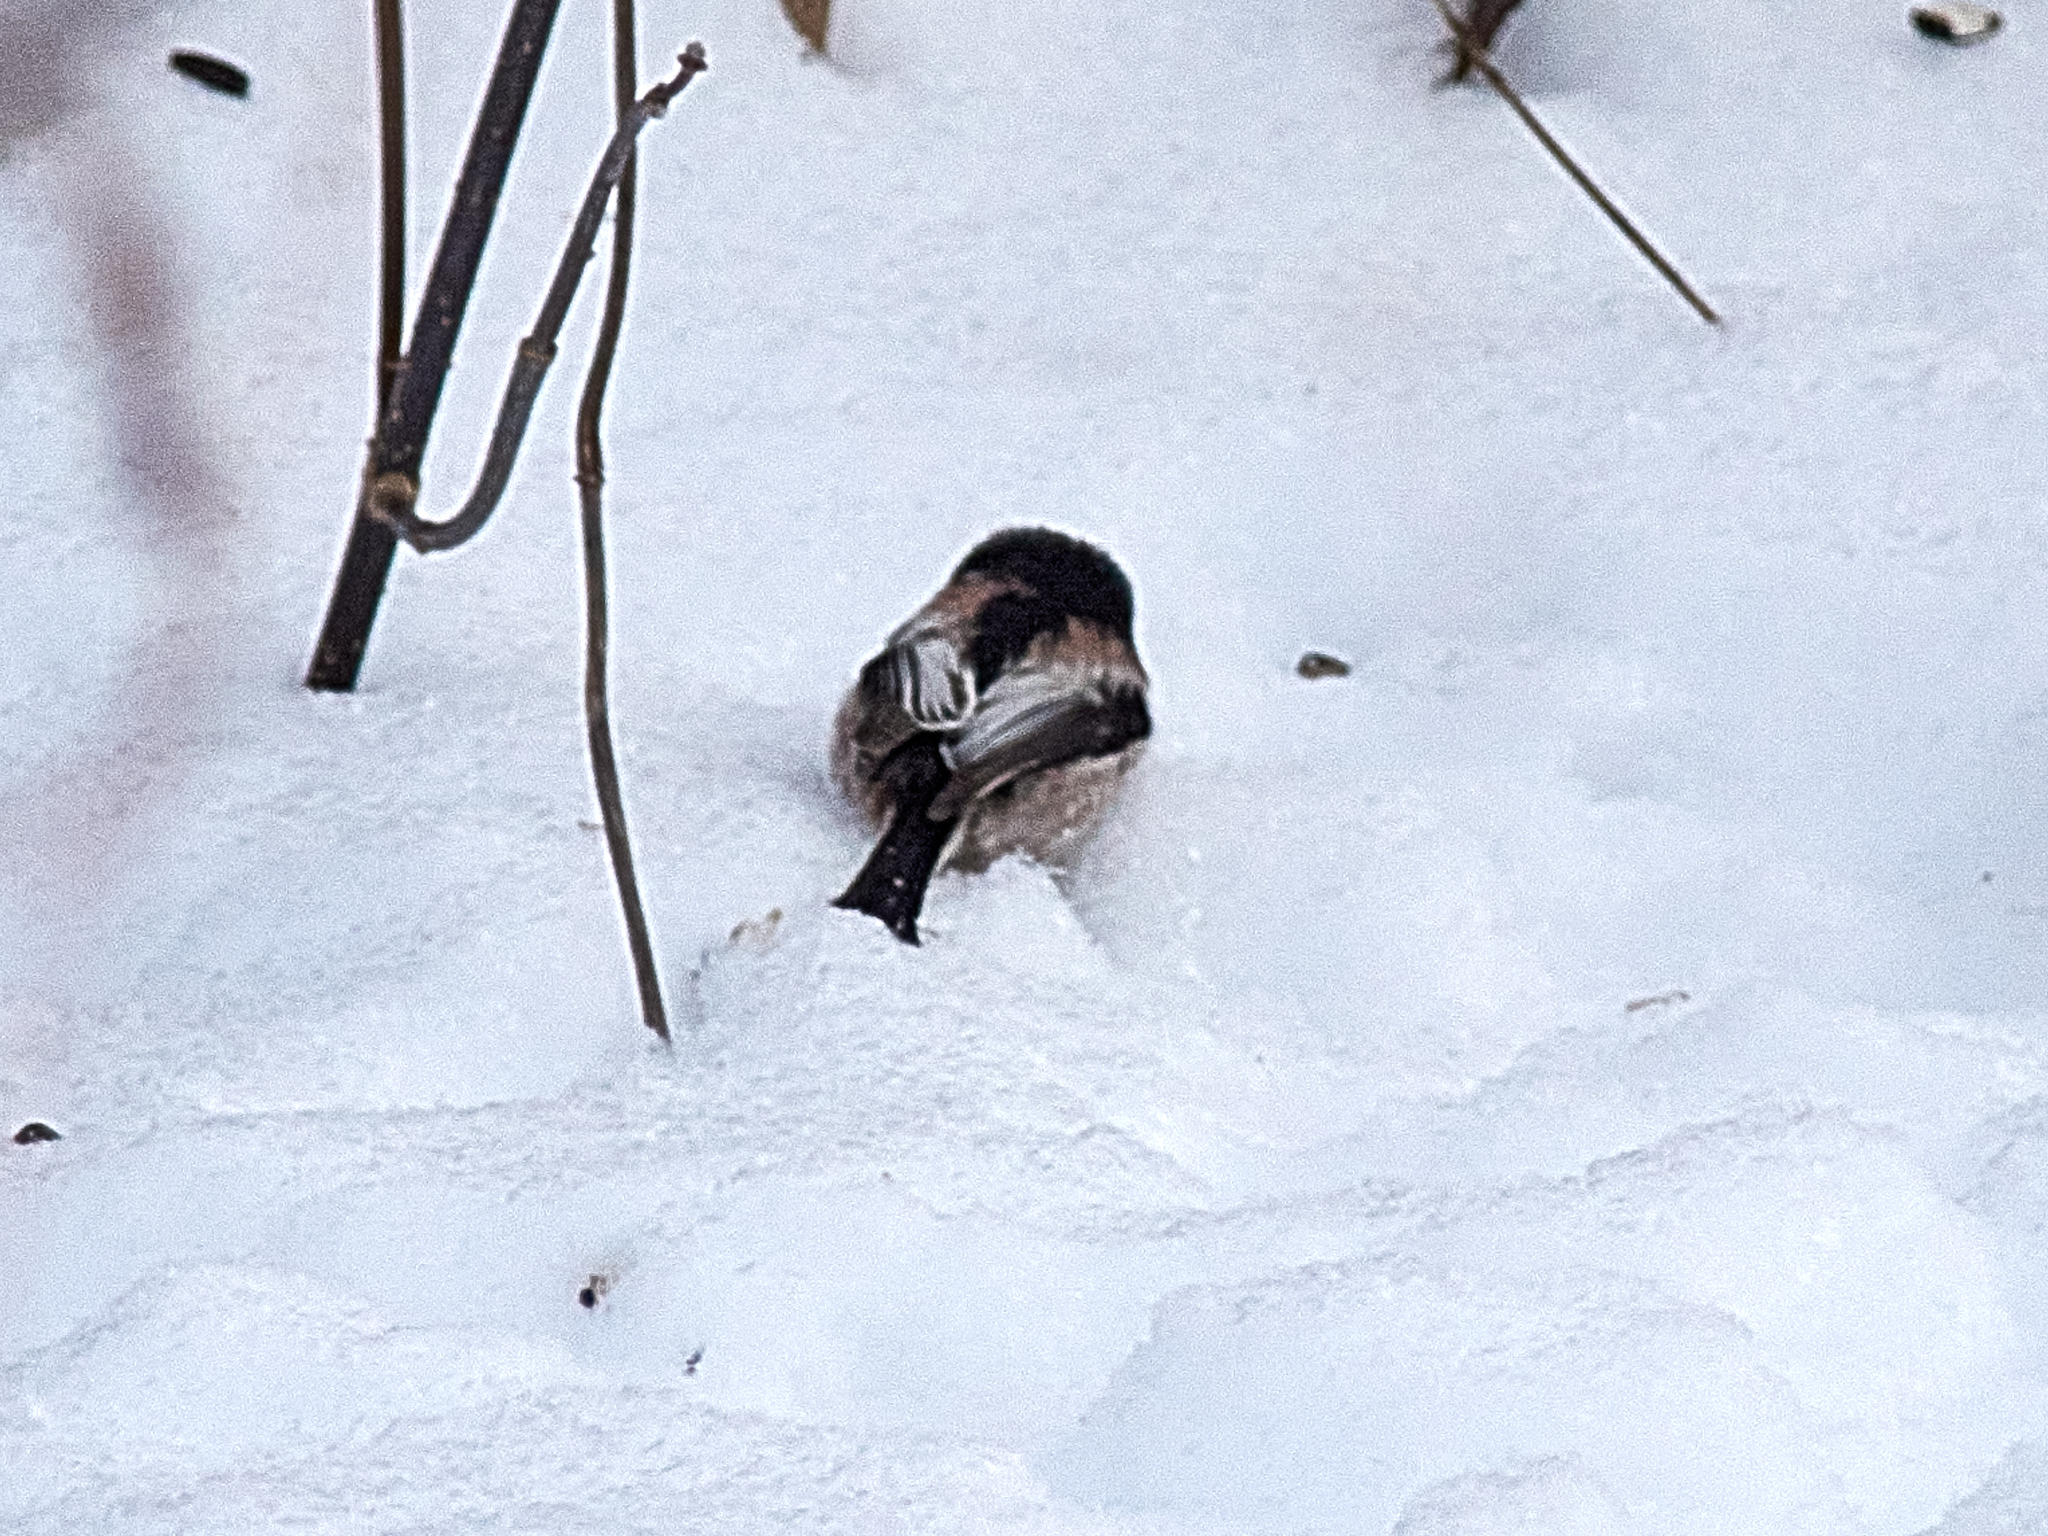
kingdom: Animalia
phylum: Chordata
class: Aves
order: Passeriformes
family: Aegithalidae
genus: Aegithalos
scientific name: Aegithalos caudatus
